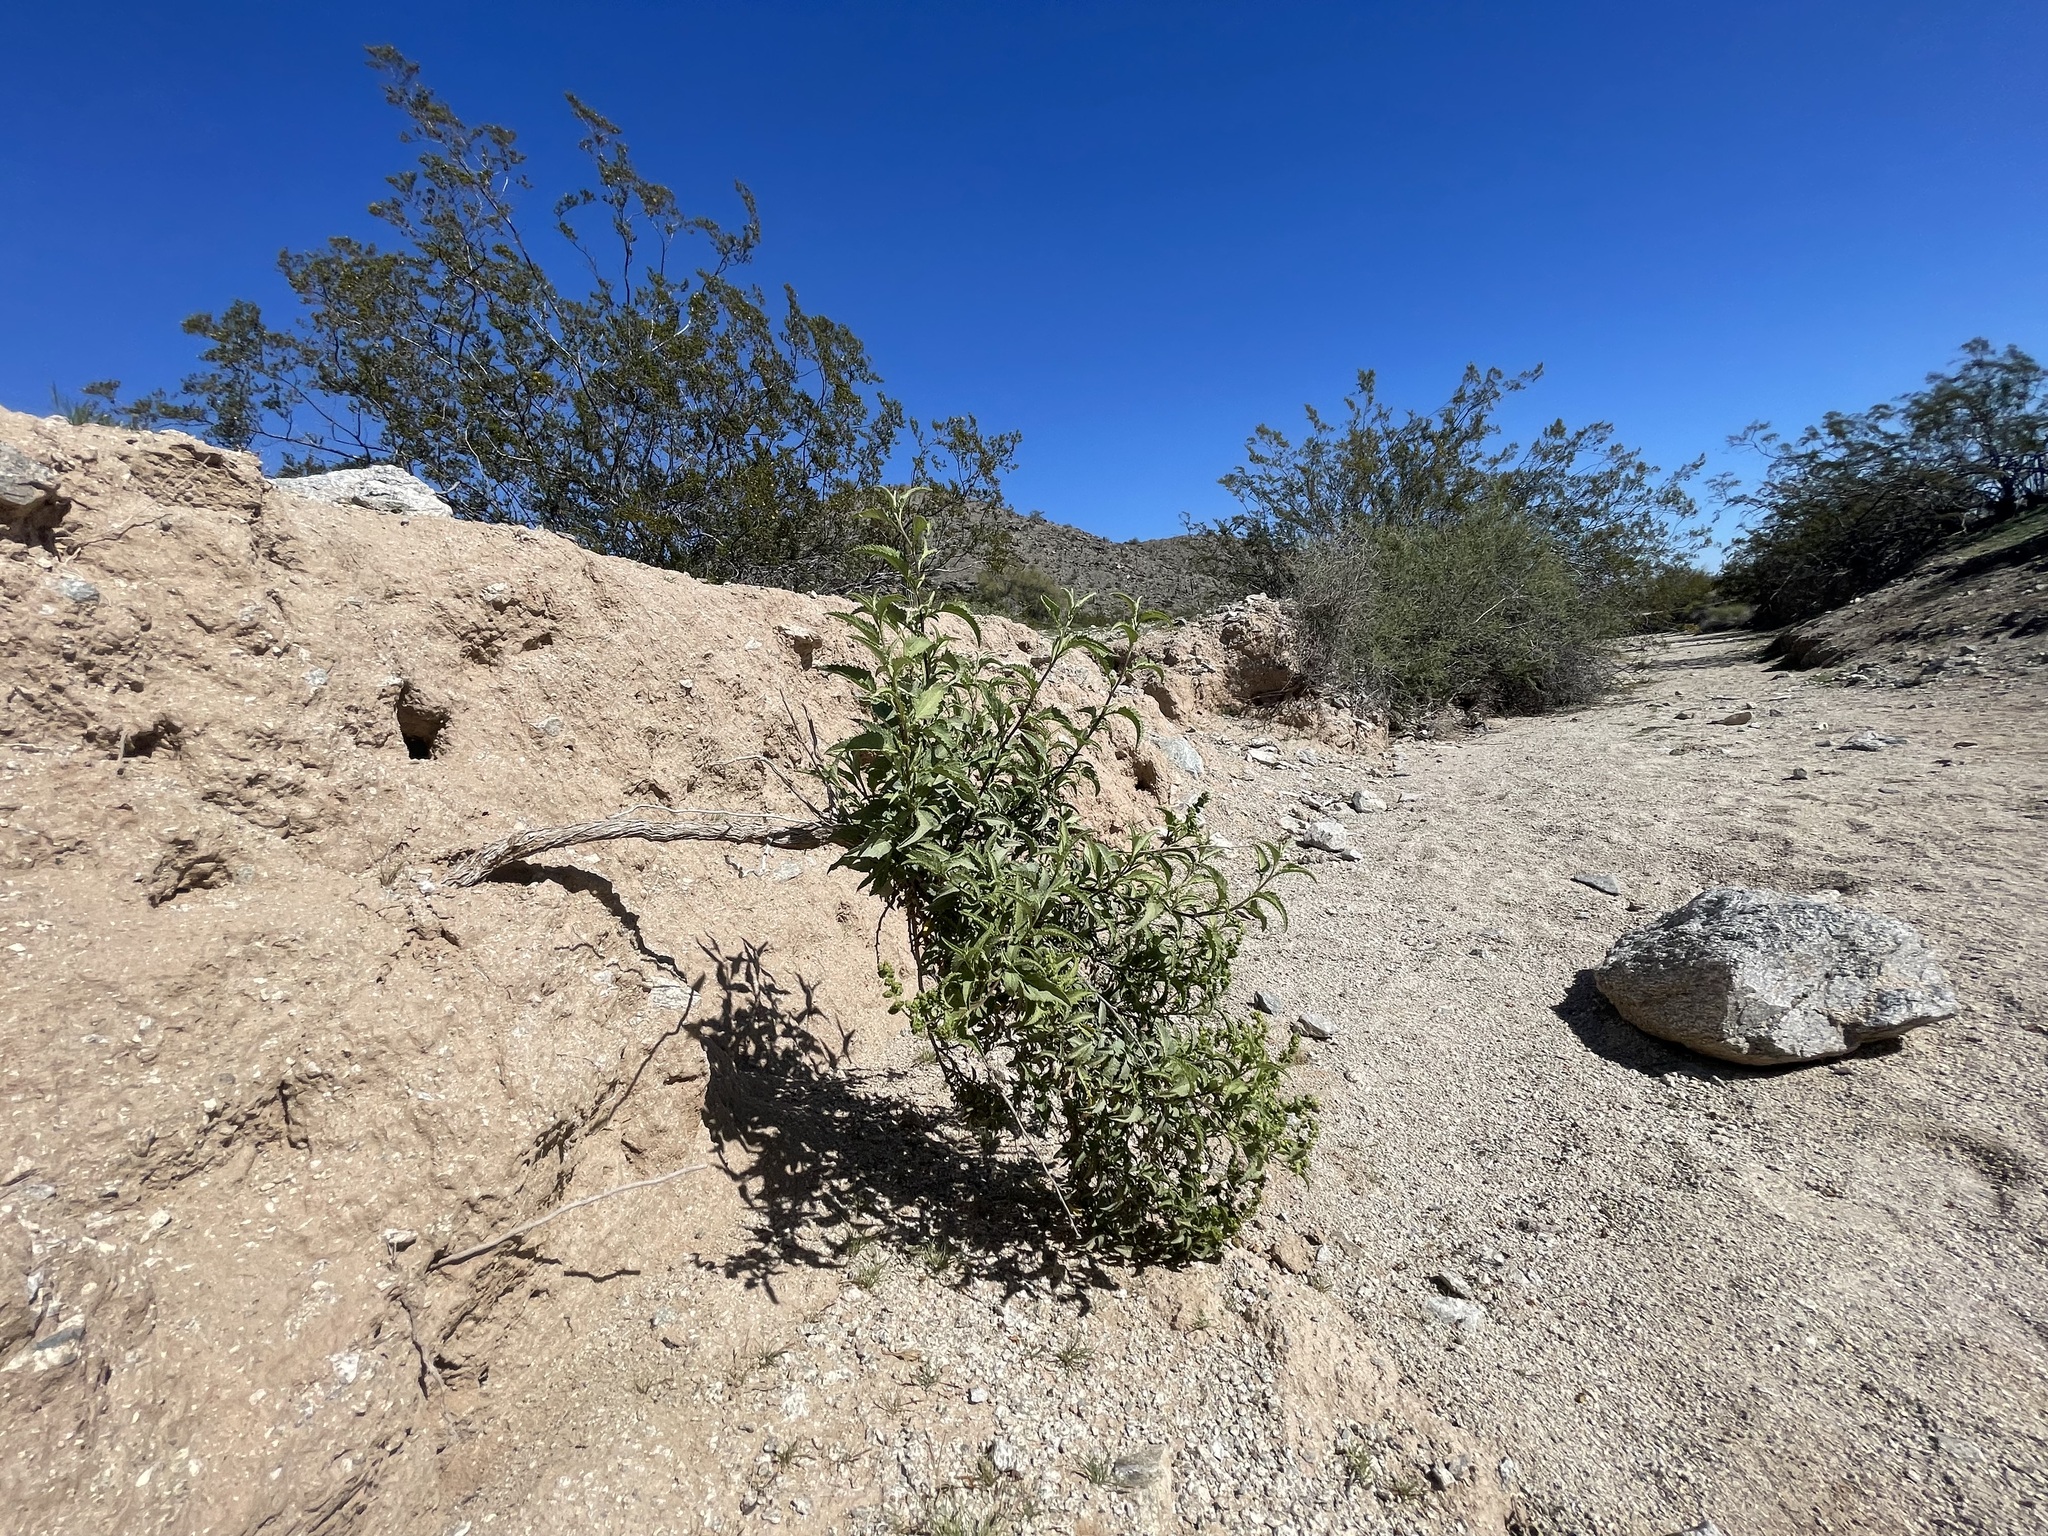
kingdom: Plantae
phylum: Tracheophyta
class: Magnoliopsida
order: Asterales
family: Asteraceae
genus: Ambrosia
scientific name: Ambrosia ambrosioides
